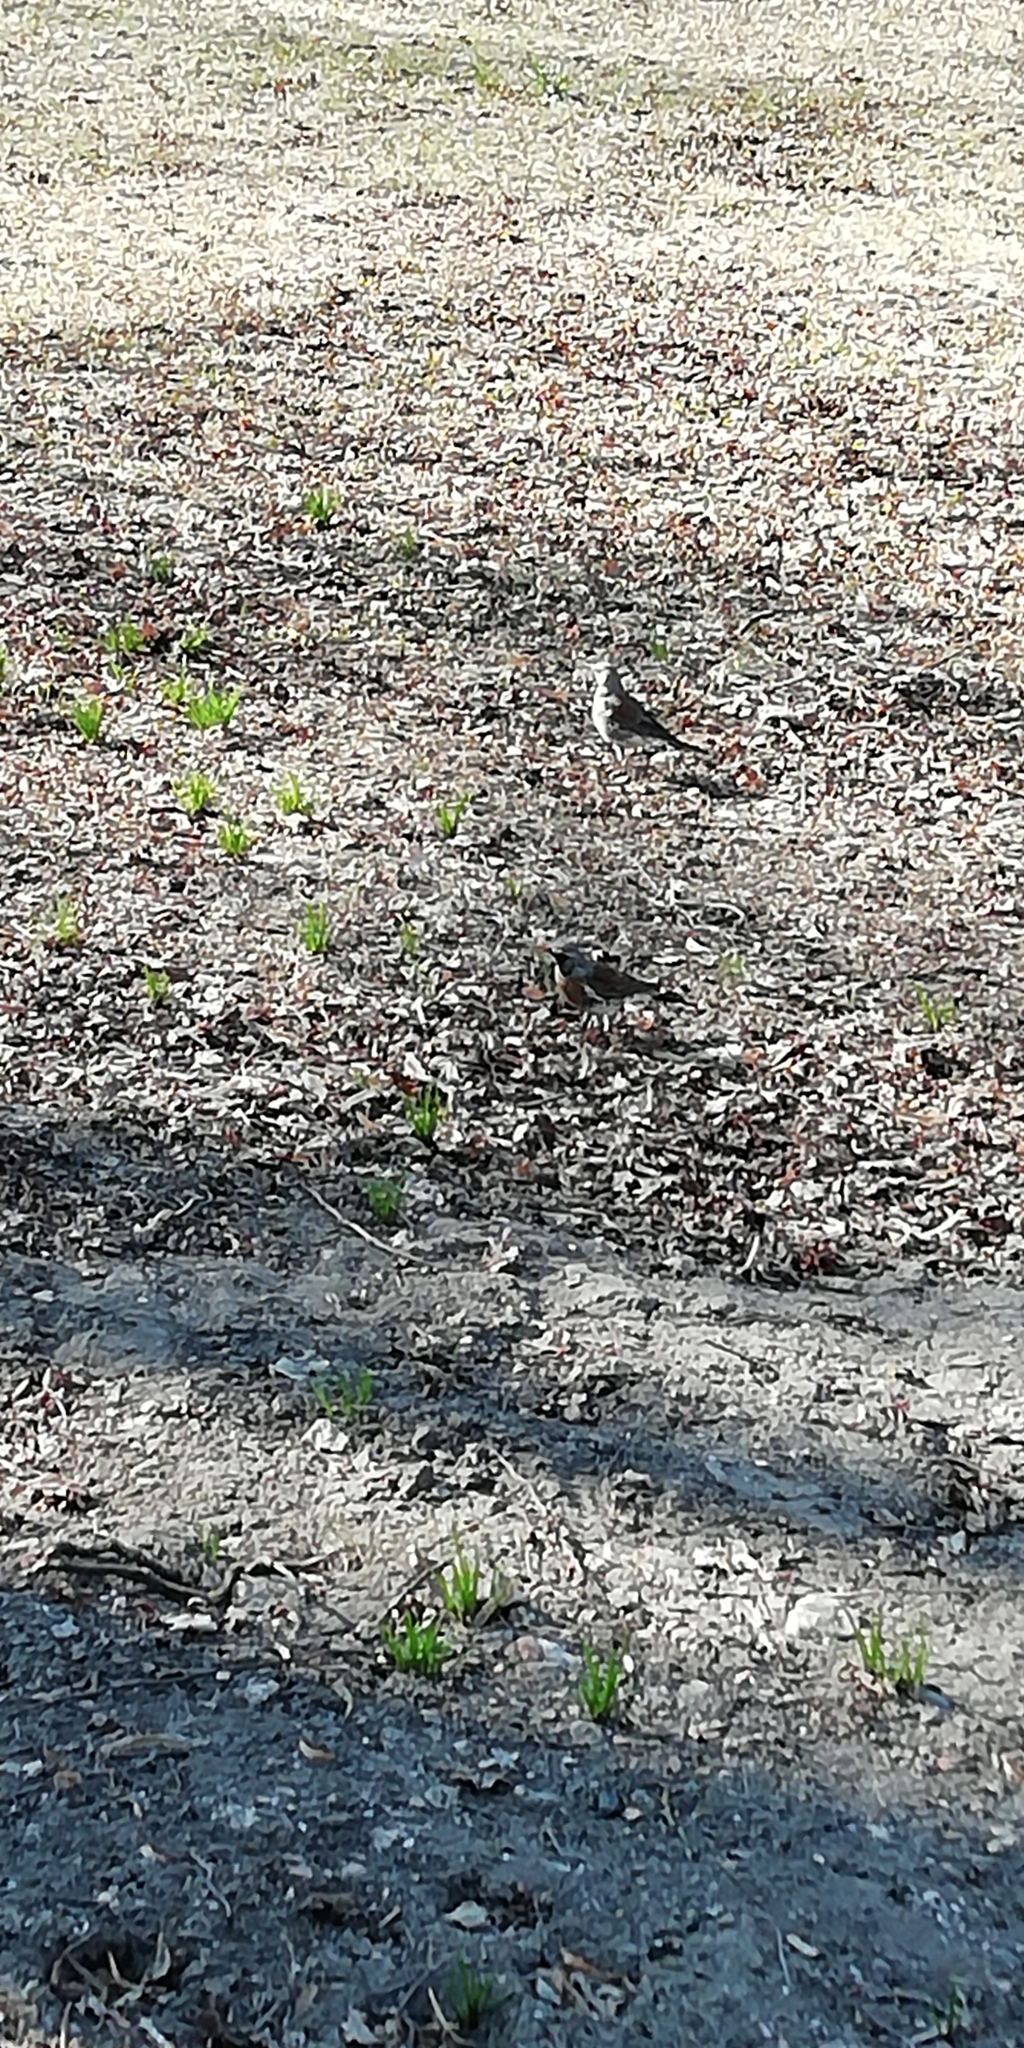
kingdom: Animalia
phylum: Chordata
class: Aves
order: Passeriformes
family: Turdidae
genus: Turdus
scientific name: Turdus pilaris
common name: Fieldfare
